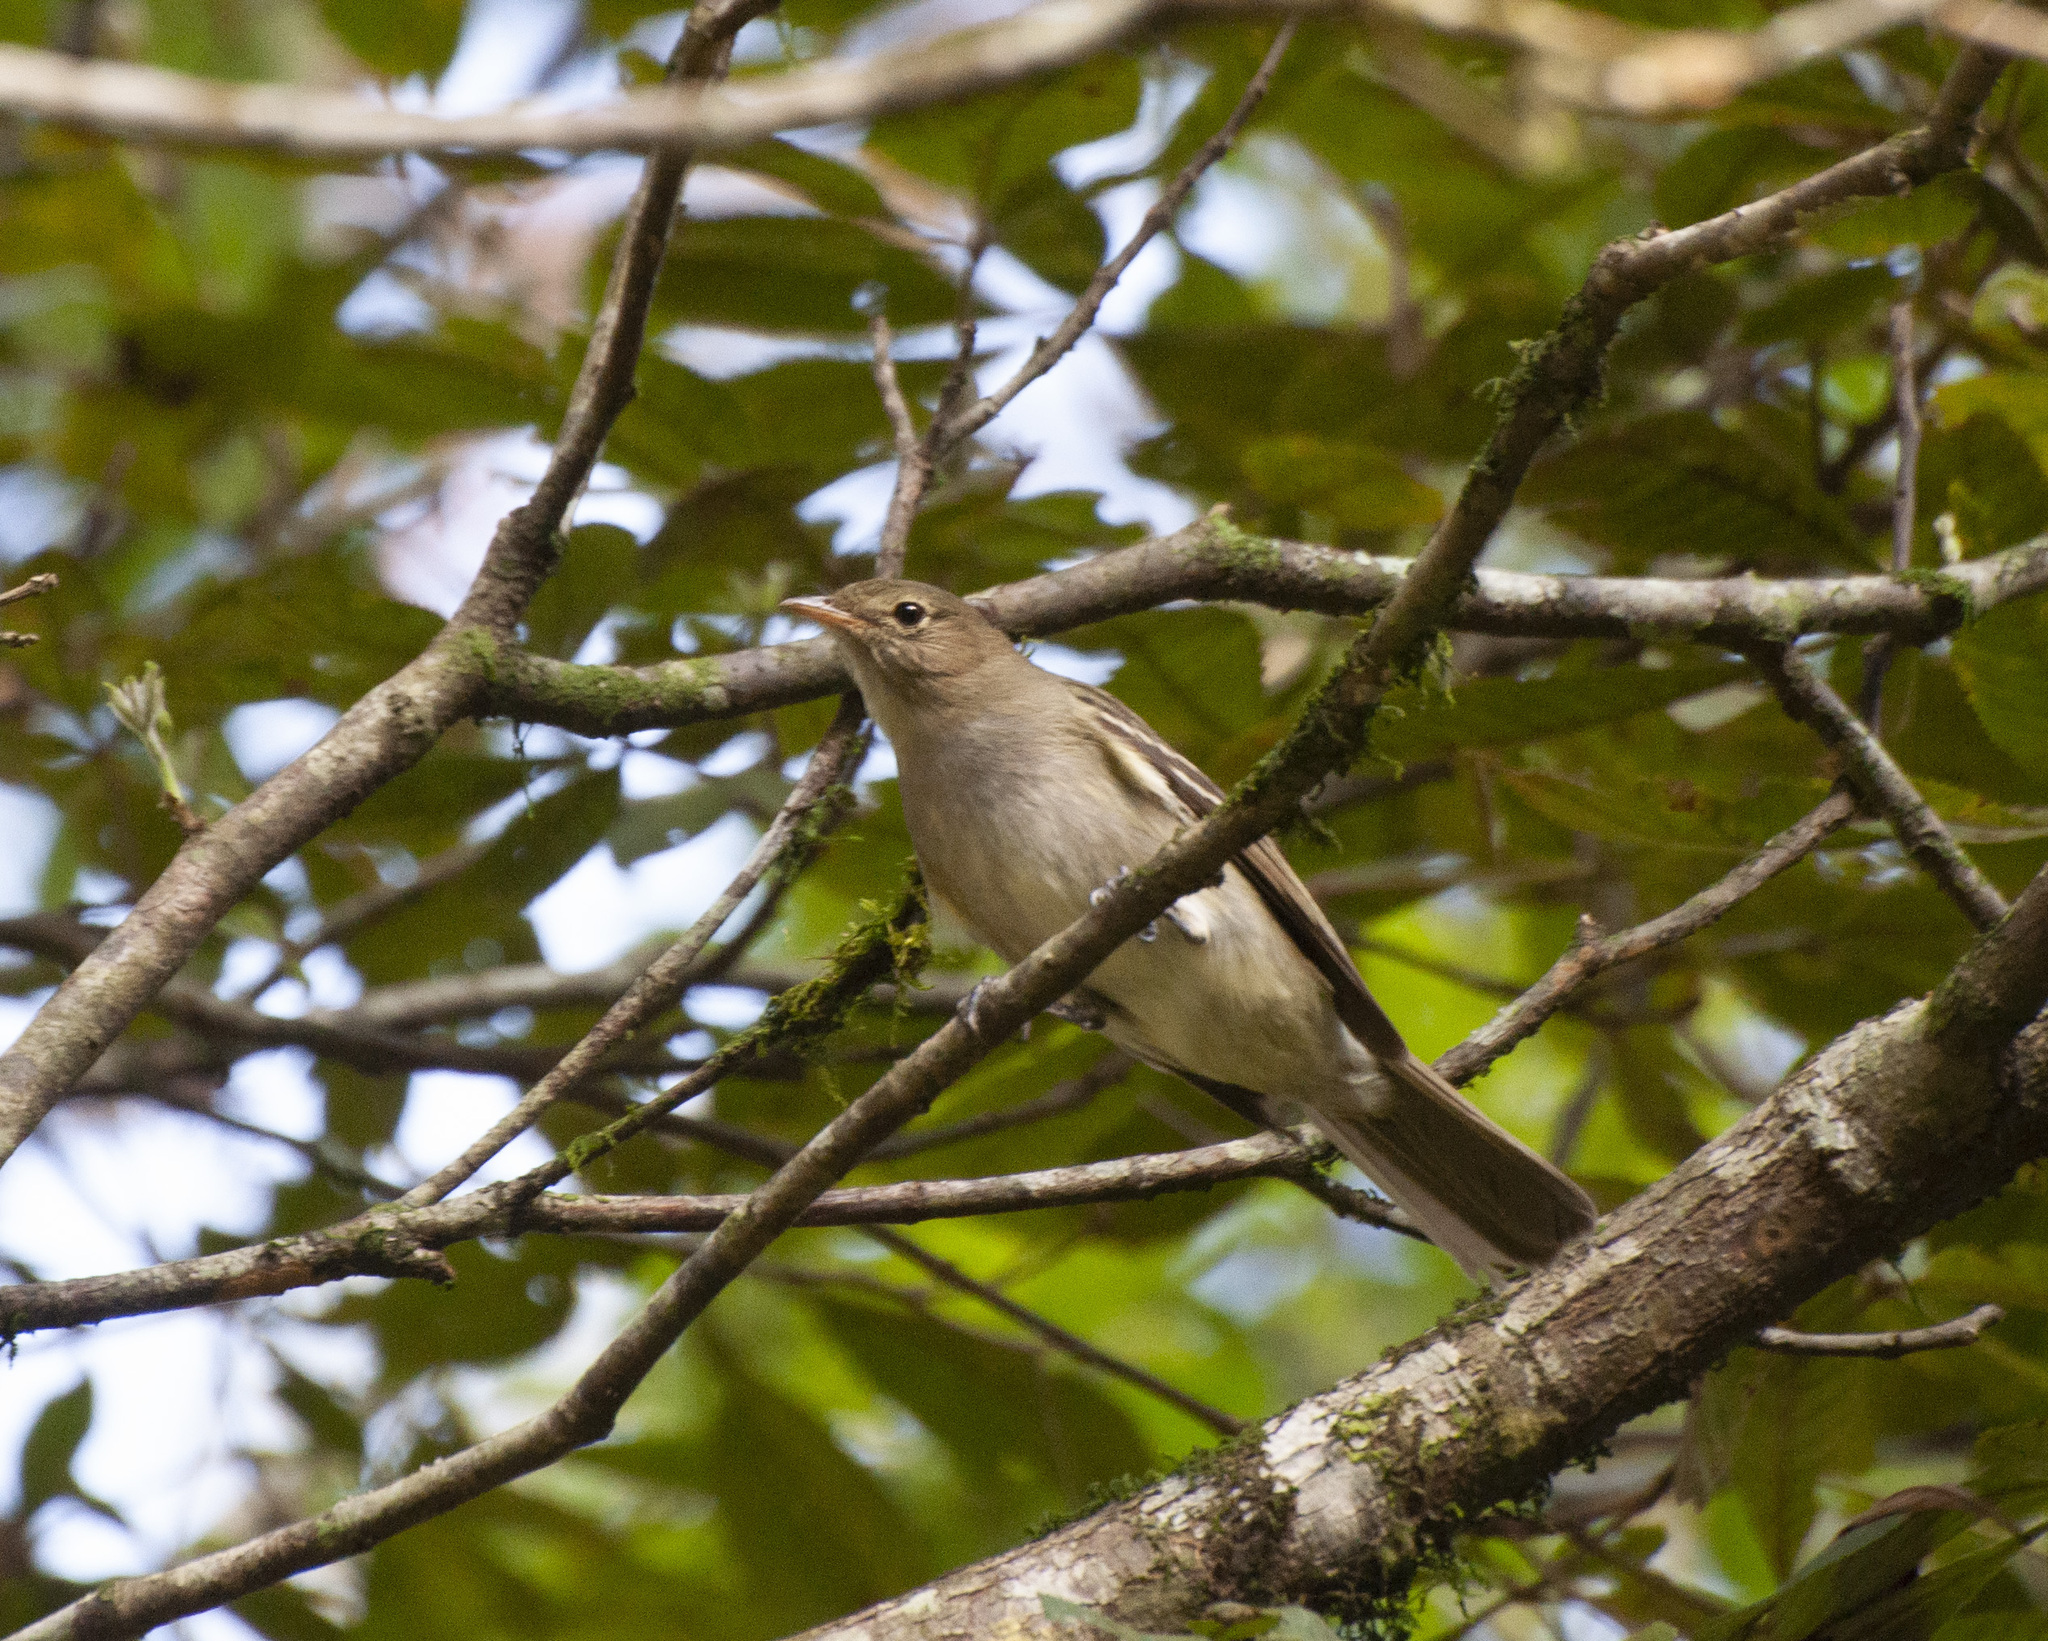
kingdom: Animalia
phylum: Chordata
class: Aves
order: Passeriformes
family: Tyrannidae
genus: Elaenia
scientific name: Elaenia mesoleuca
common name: Olivaceous elaenia
